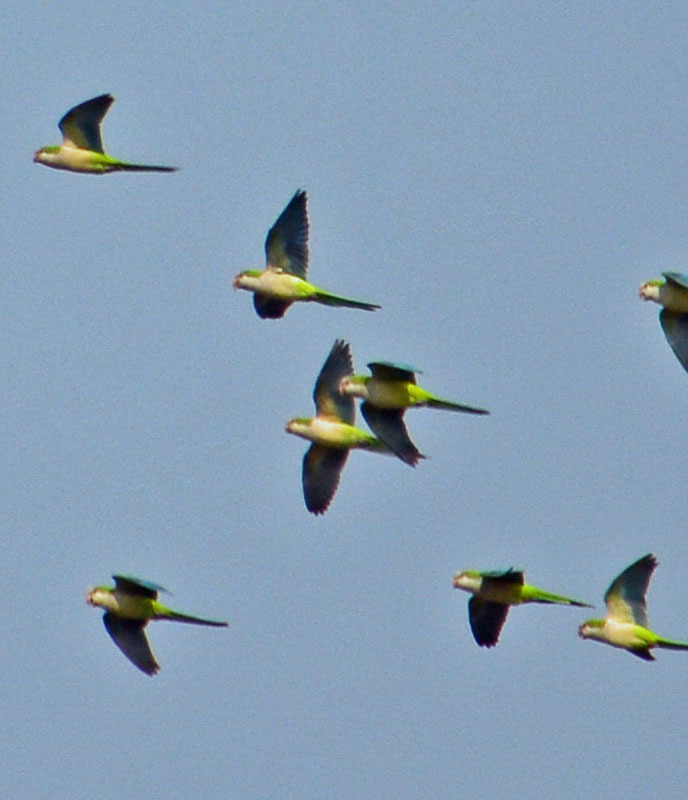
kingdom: Animalia
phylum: Chordata
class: Aves
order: Psittaciformes
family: Psittacidae
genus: Myiopsitta
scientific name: Myiopsitta monachus
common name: Monk parakeet
